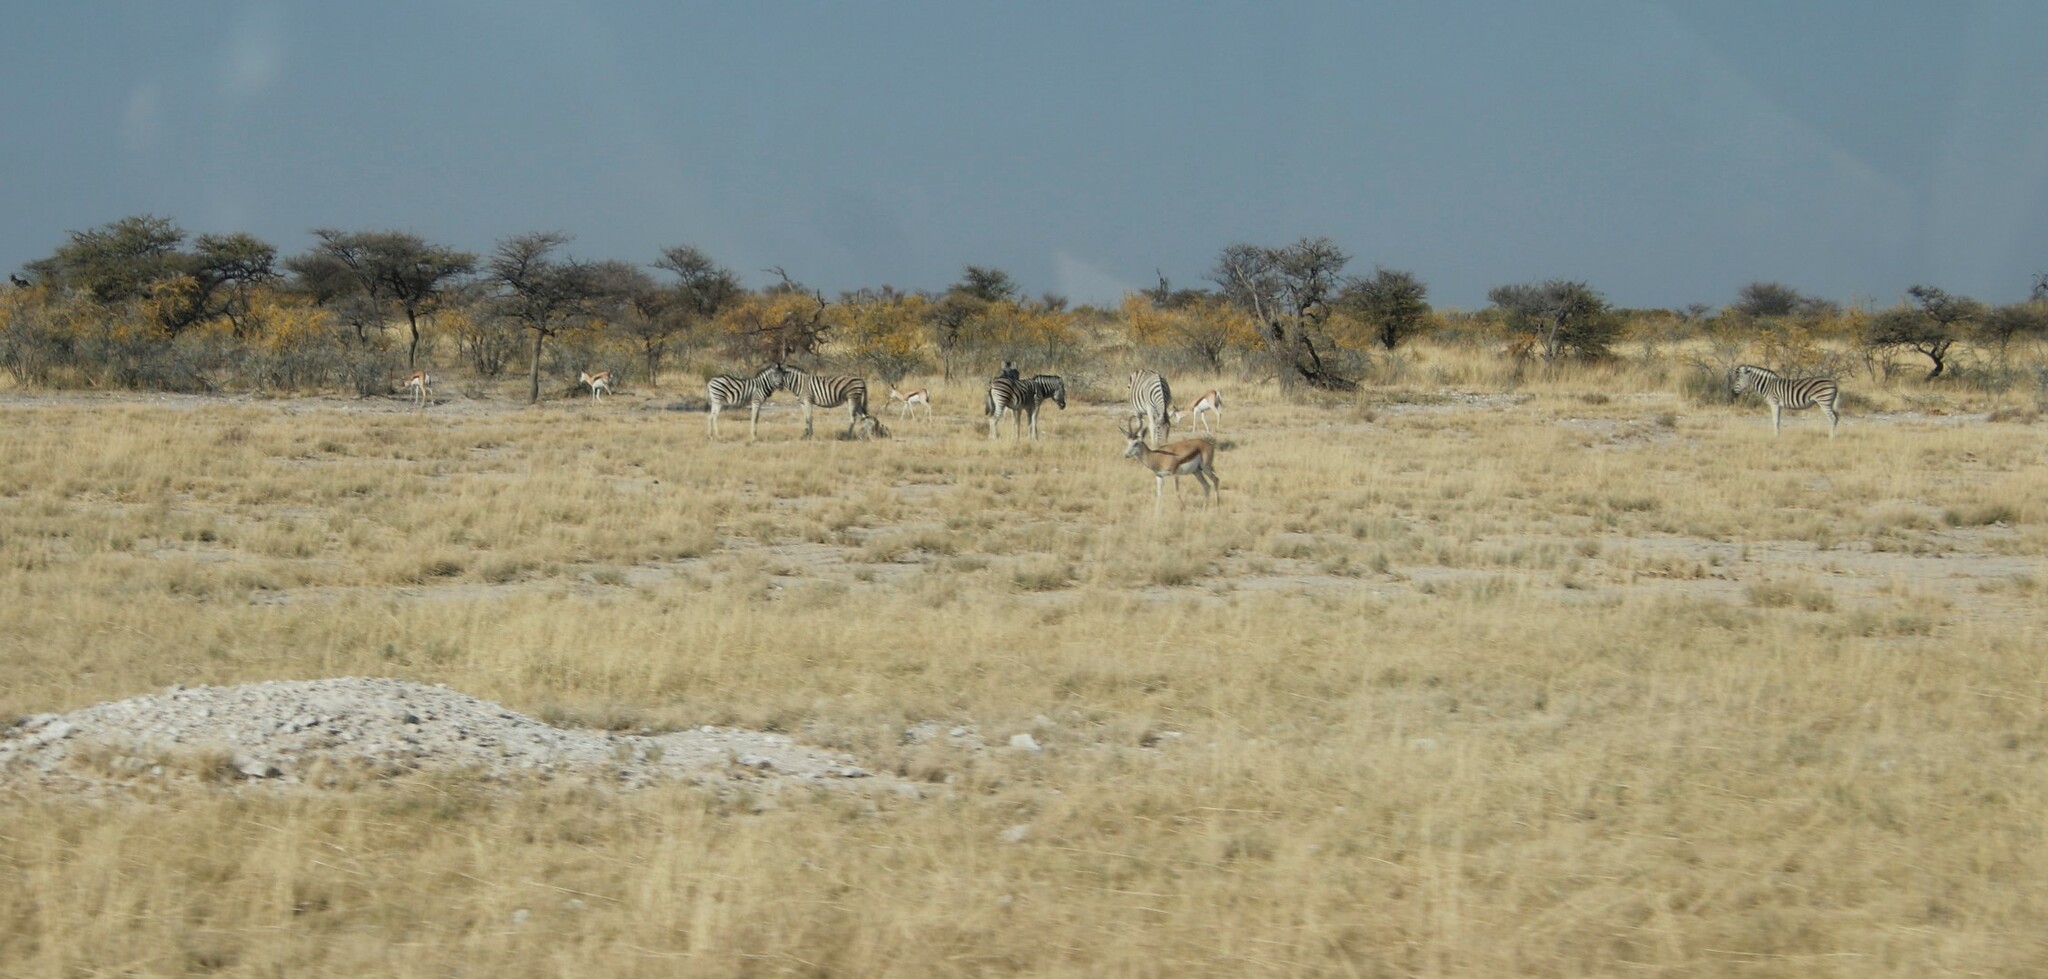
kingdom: Animalia
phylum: Chordata
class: Mammalia
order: Artiodactyla
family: Bovidae
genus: Antidorcas
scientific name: Antidorcas marsupialis
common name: Springbok
